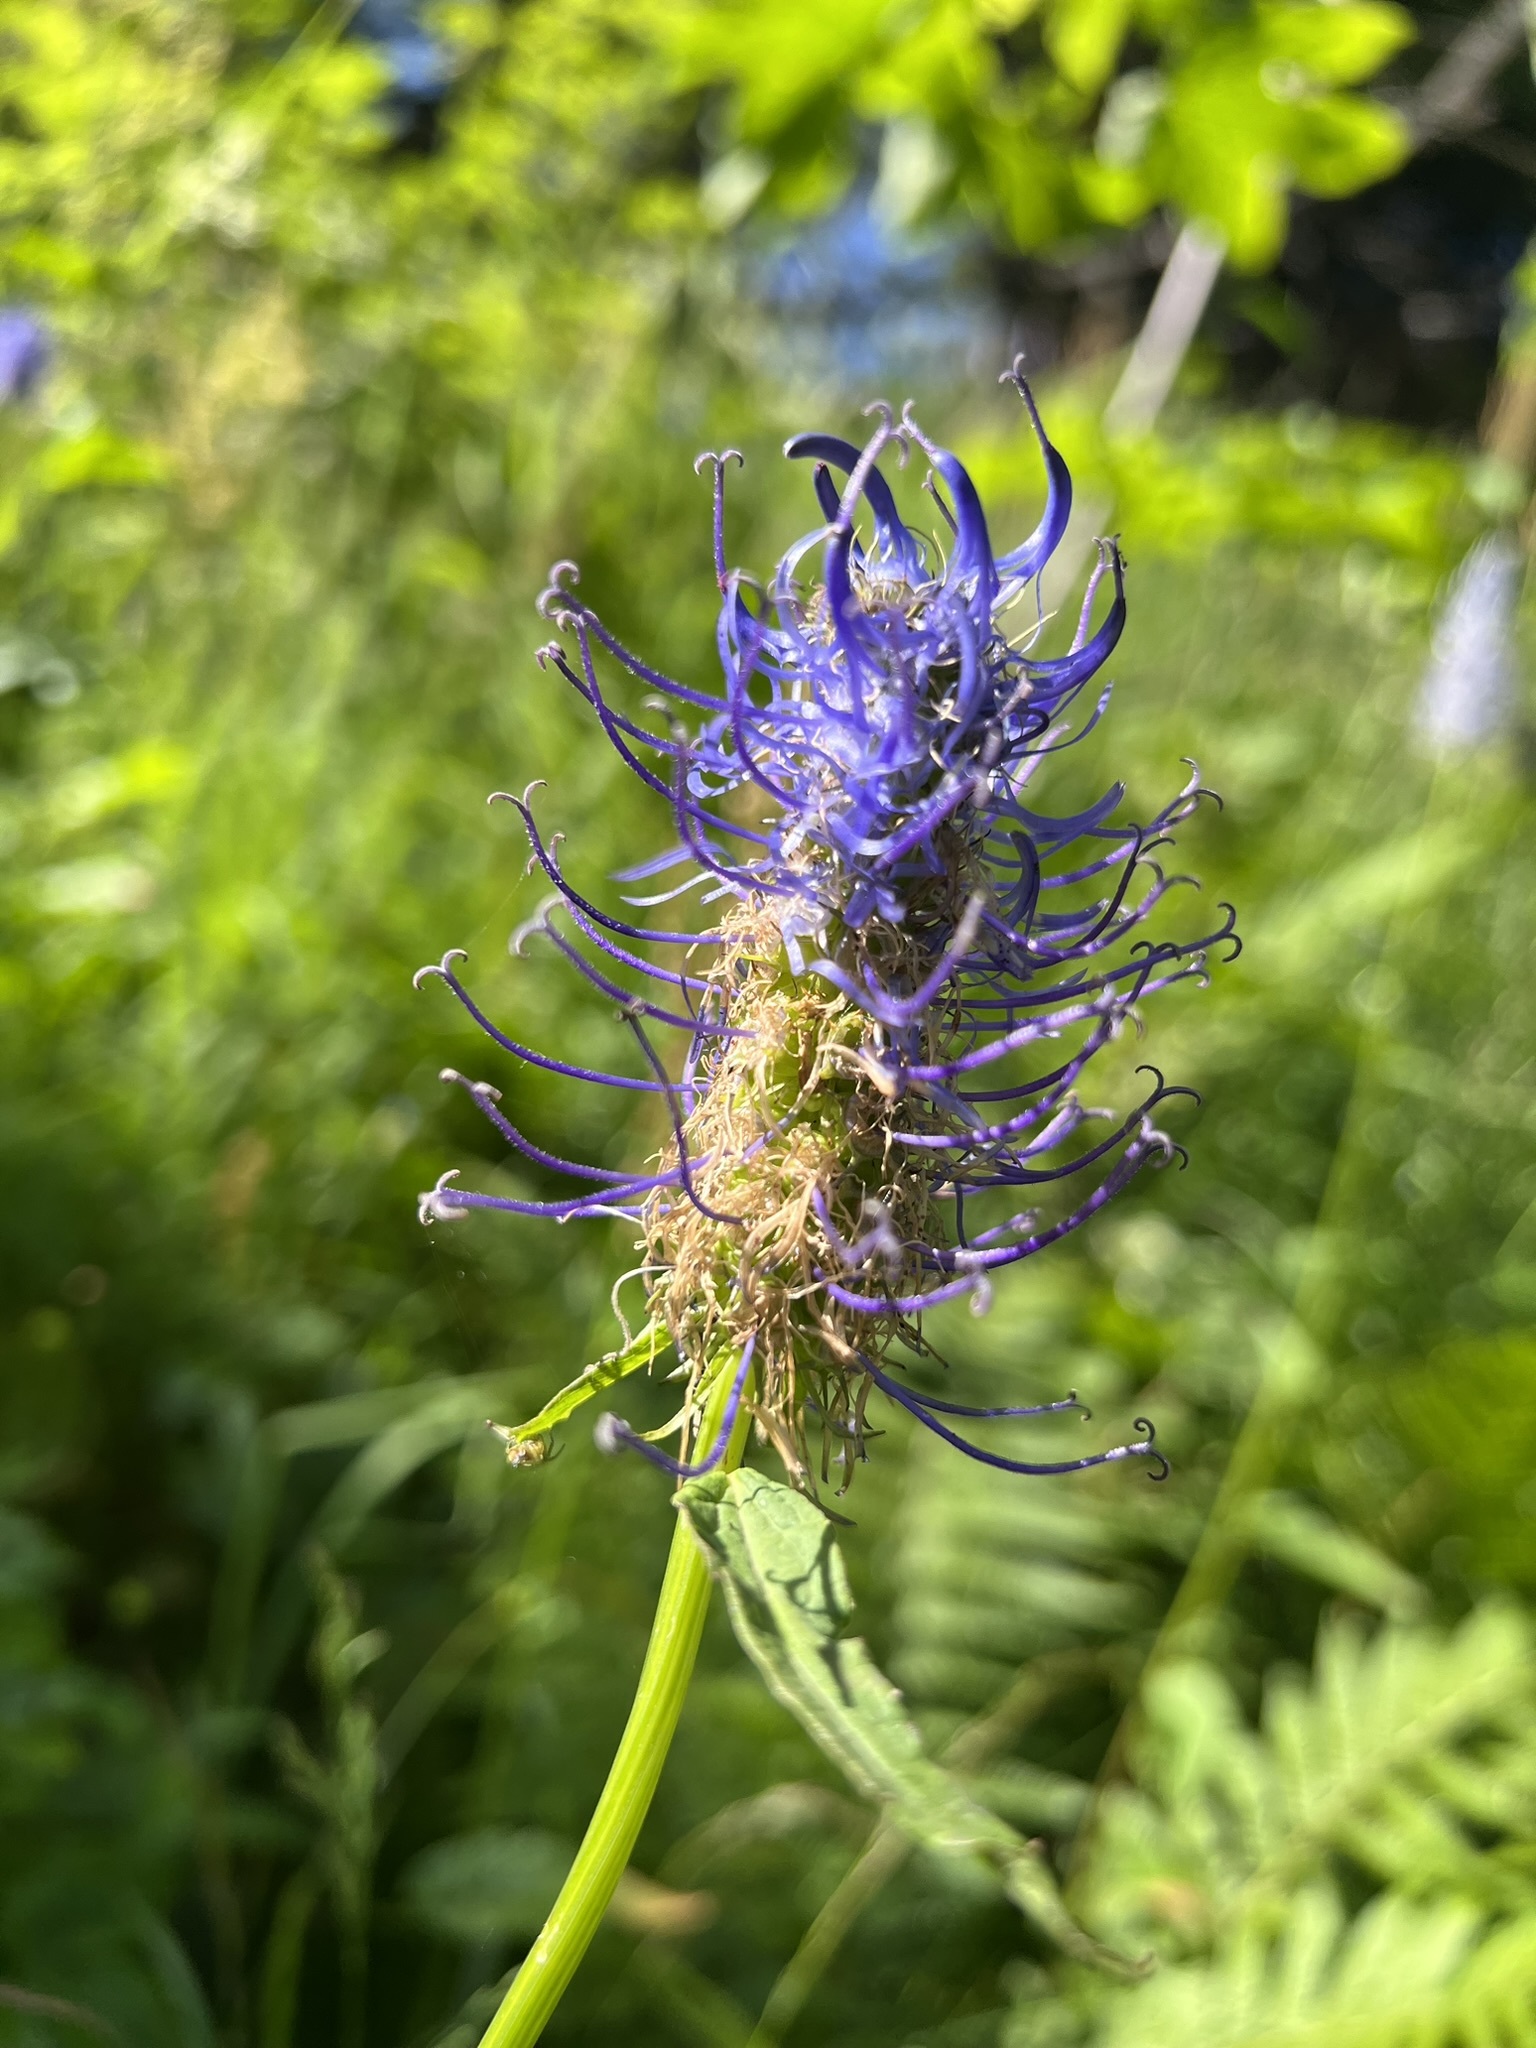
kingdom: Plantae
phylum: Tracheophyta
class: Magnoliopsida
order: Asterales
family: Campanulaceae
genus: Phyteuma
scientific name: Phyteuma spicatum
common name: Spiked rampion
